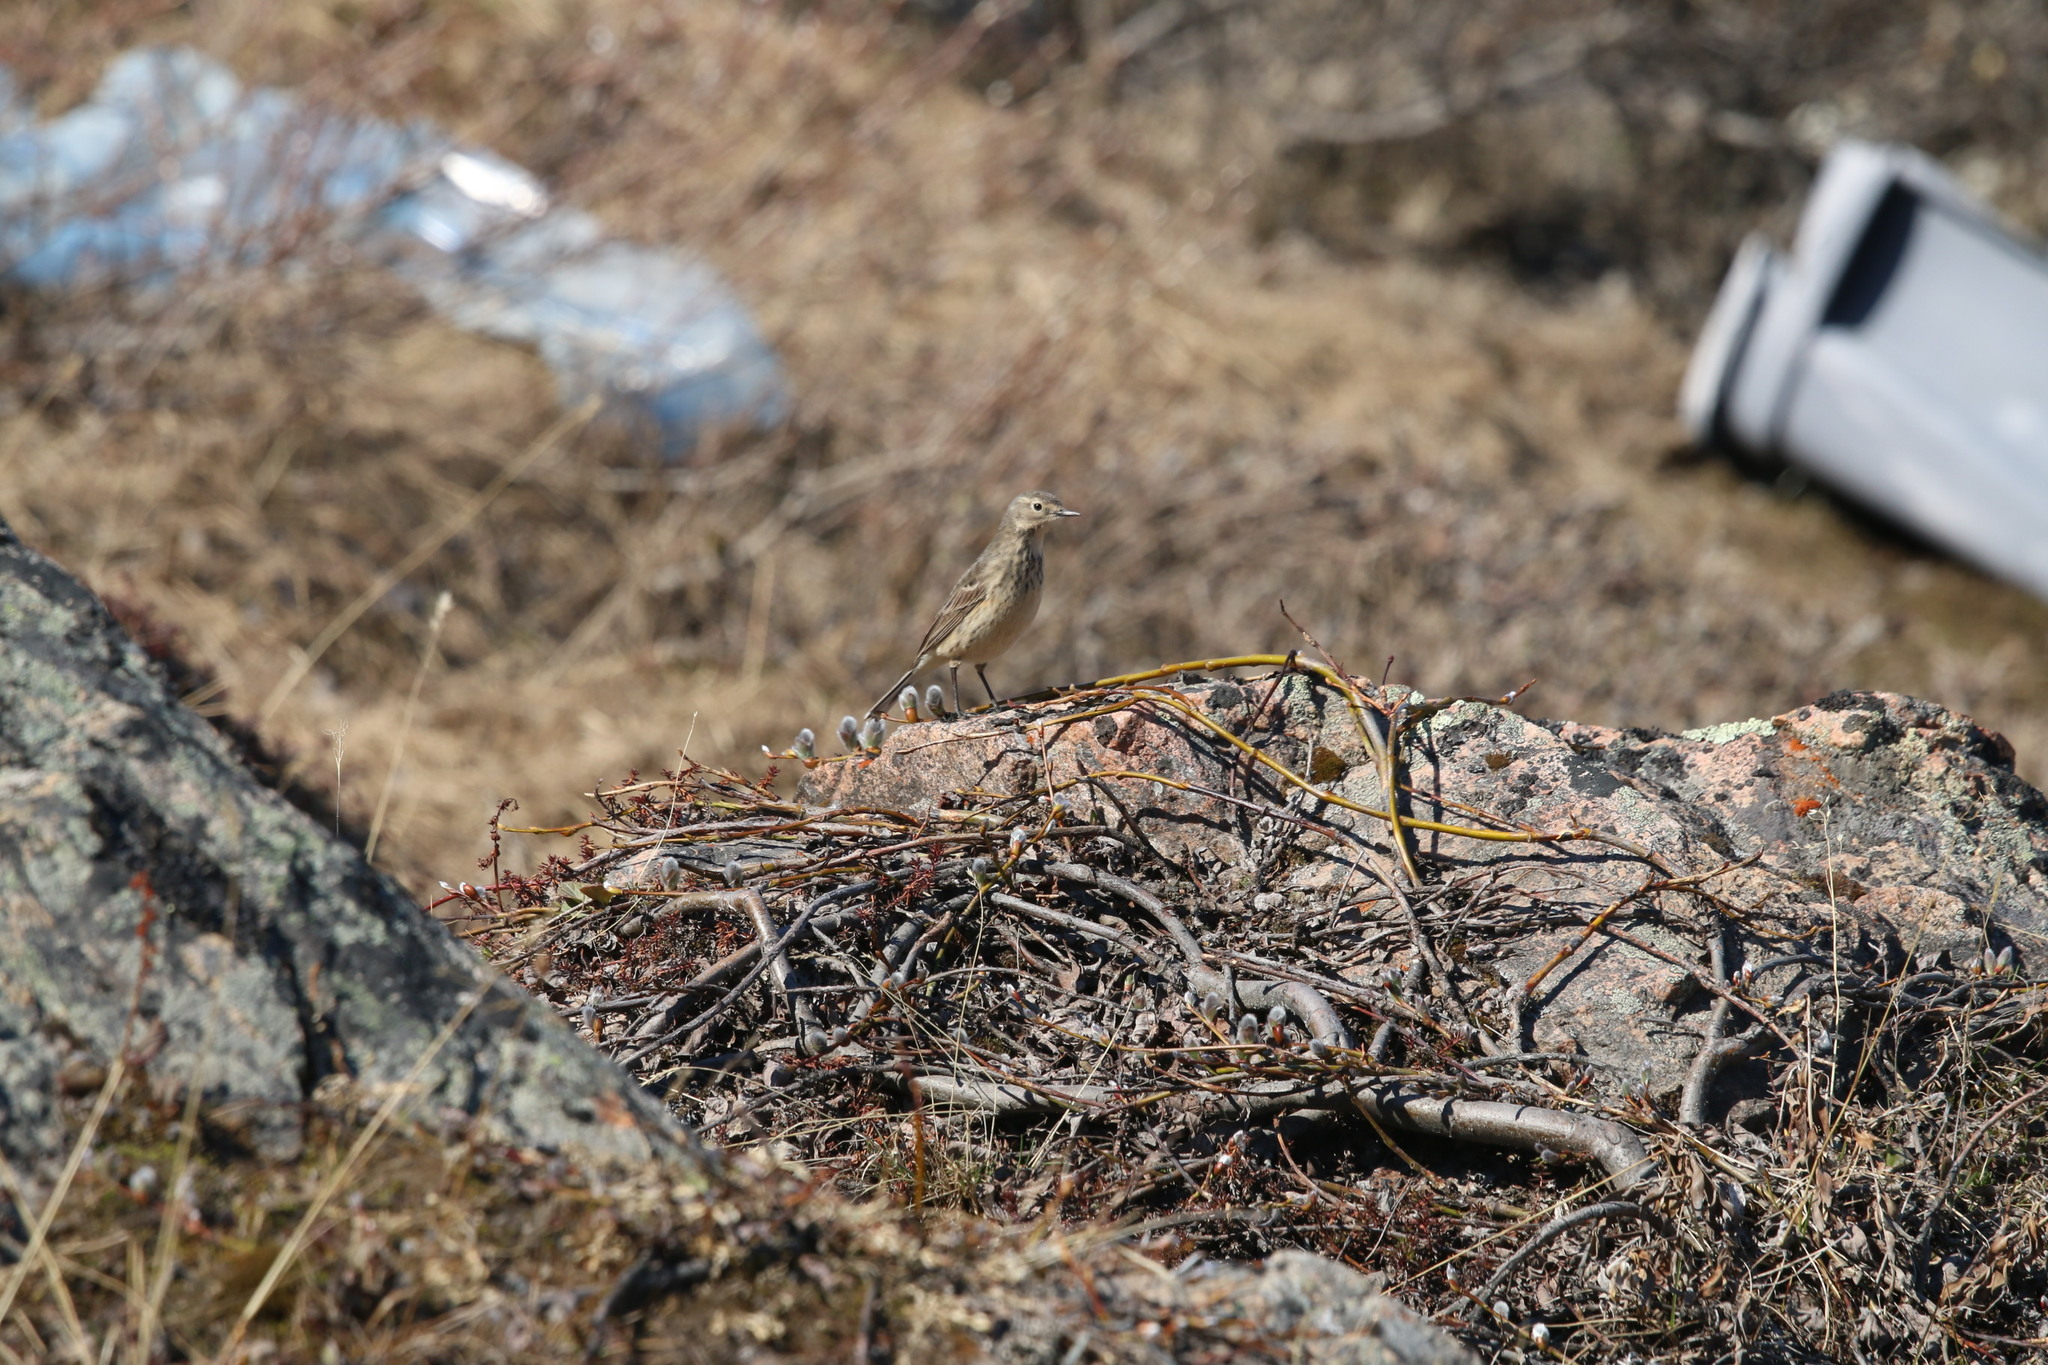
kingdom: Animalia
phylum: Chordata
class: Aves
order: Passeriformes
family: Motacillidae
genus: Anthus
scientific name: Anthus rubescens
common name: Buff-bellied pipit
